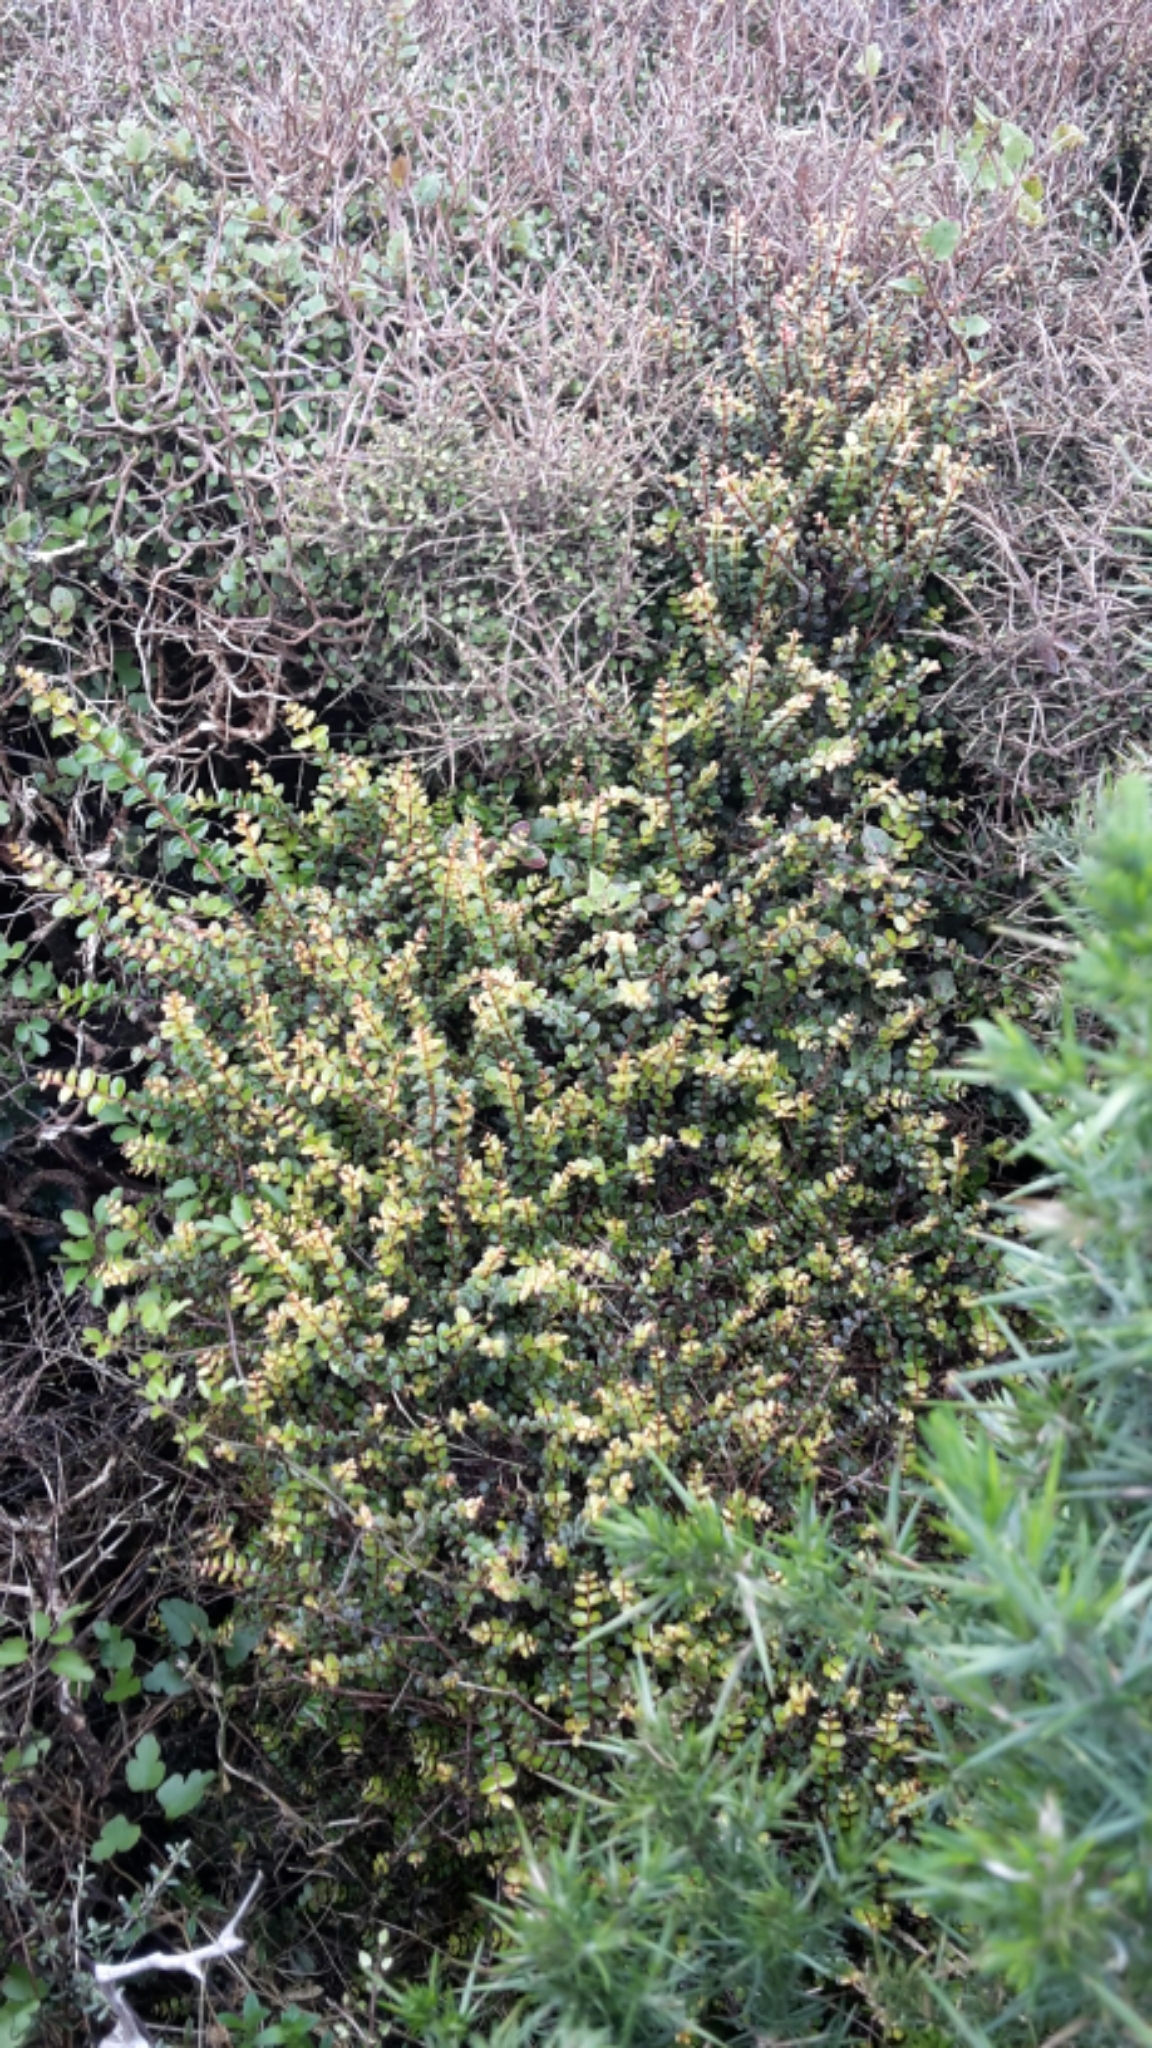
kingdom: Plantae
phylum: Tracheophyta
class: Magnoliopsida
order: Myrtales
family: Myrtaceae
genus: Metrosideros
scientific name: Metrosideros diffusa
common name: Small ratavine
